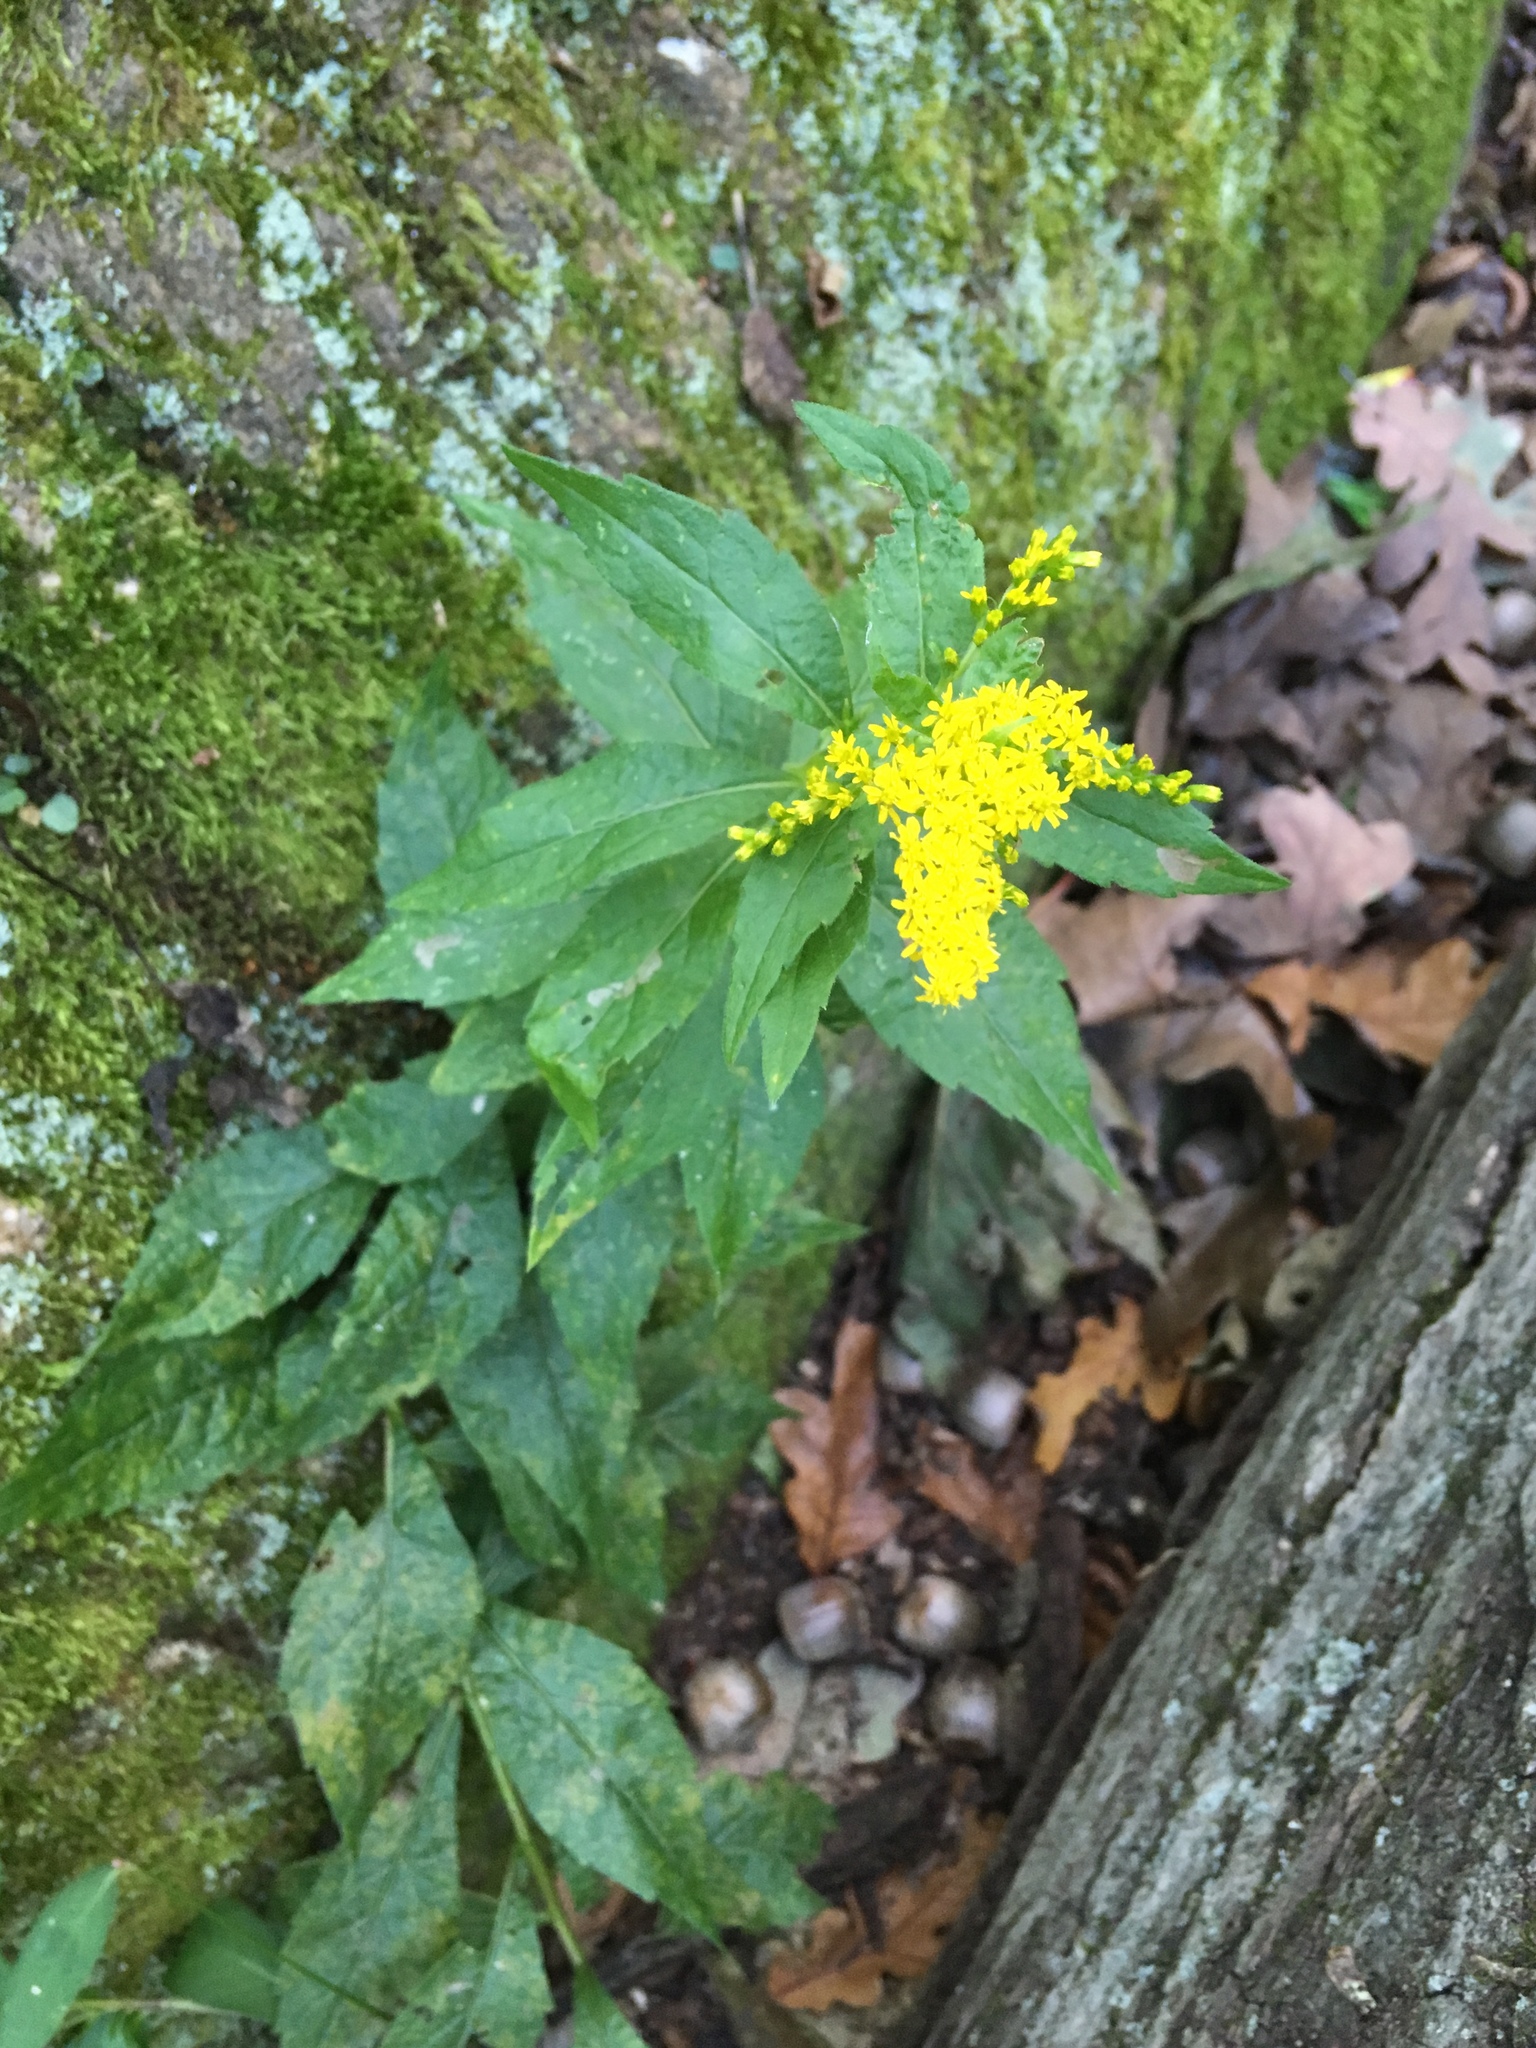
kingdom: Plantae
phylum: Tracheophyta
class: Magnoliopsida
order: Asterales
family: Asteraceae
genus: Solidago
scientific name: Solidago rugosa
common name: Rough-stemmed goldenrod
